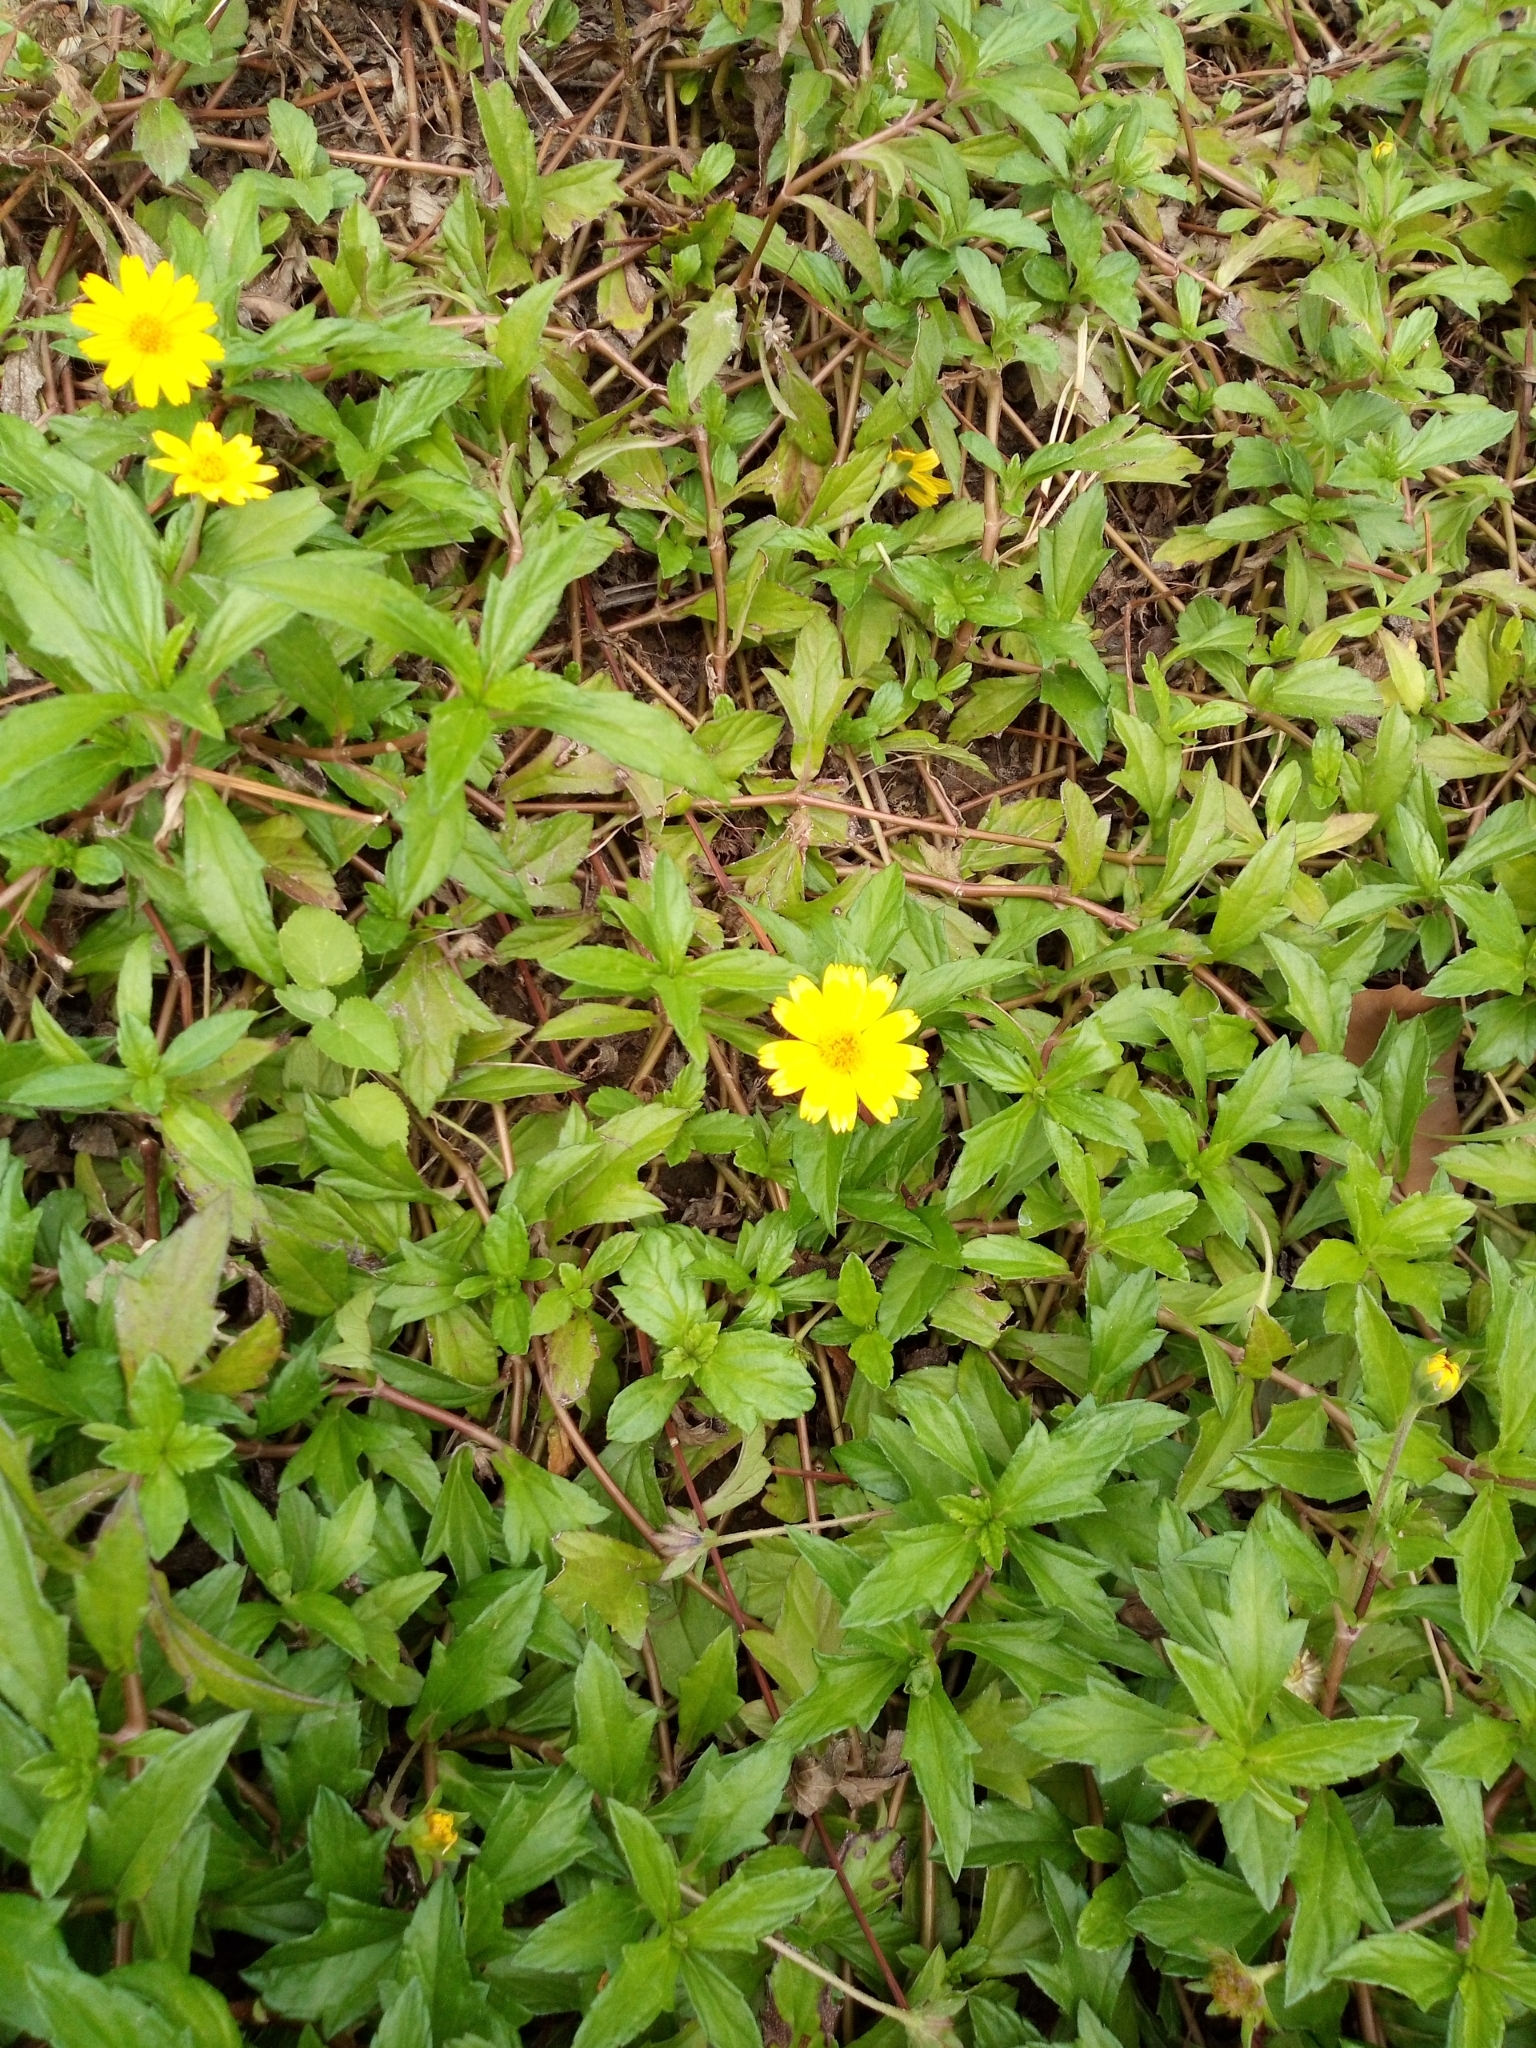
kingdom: Plantae
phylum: Tracheophyta
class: Magnoliopsida
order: Asterales
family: Asteraceae
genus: Sphagneticola
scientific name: Sphagneticola trilobata
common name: Bay biscayne creeping-oxeye
